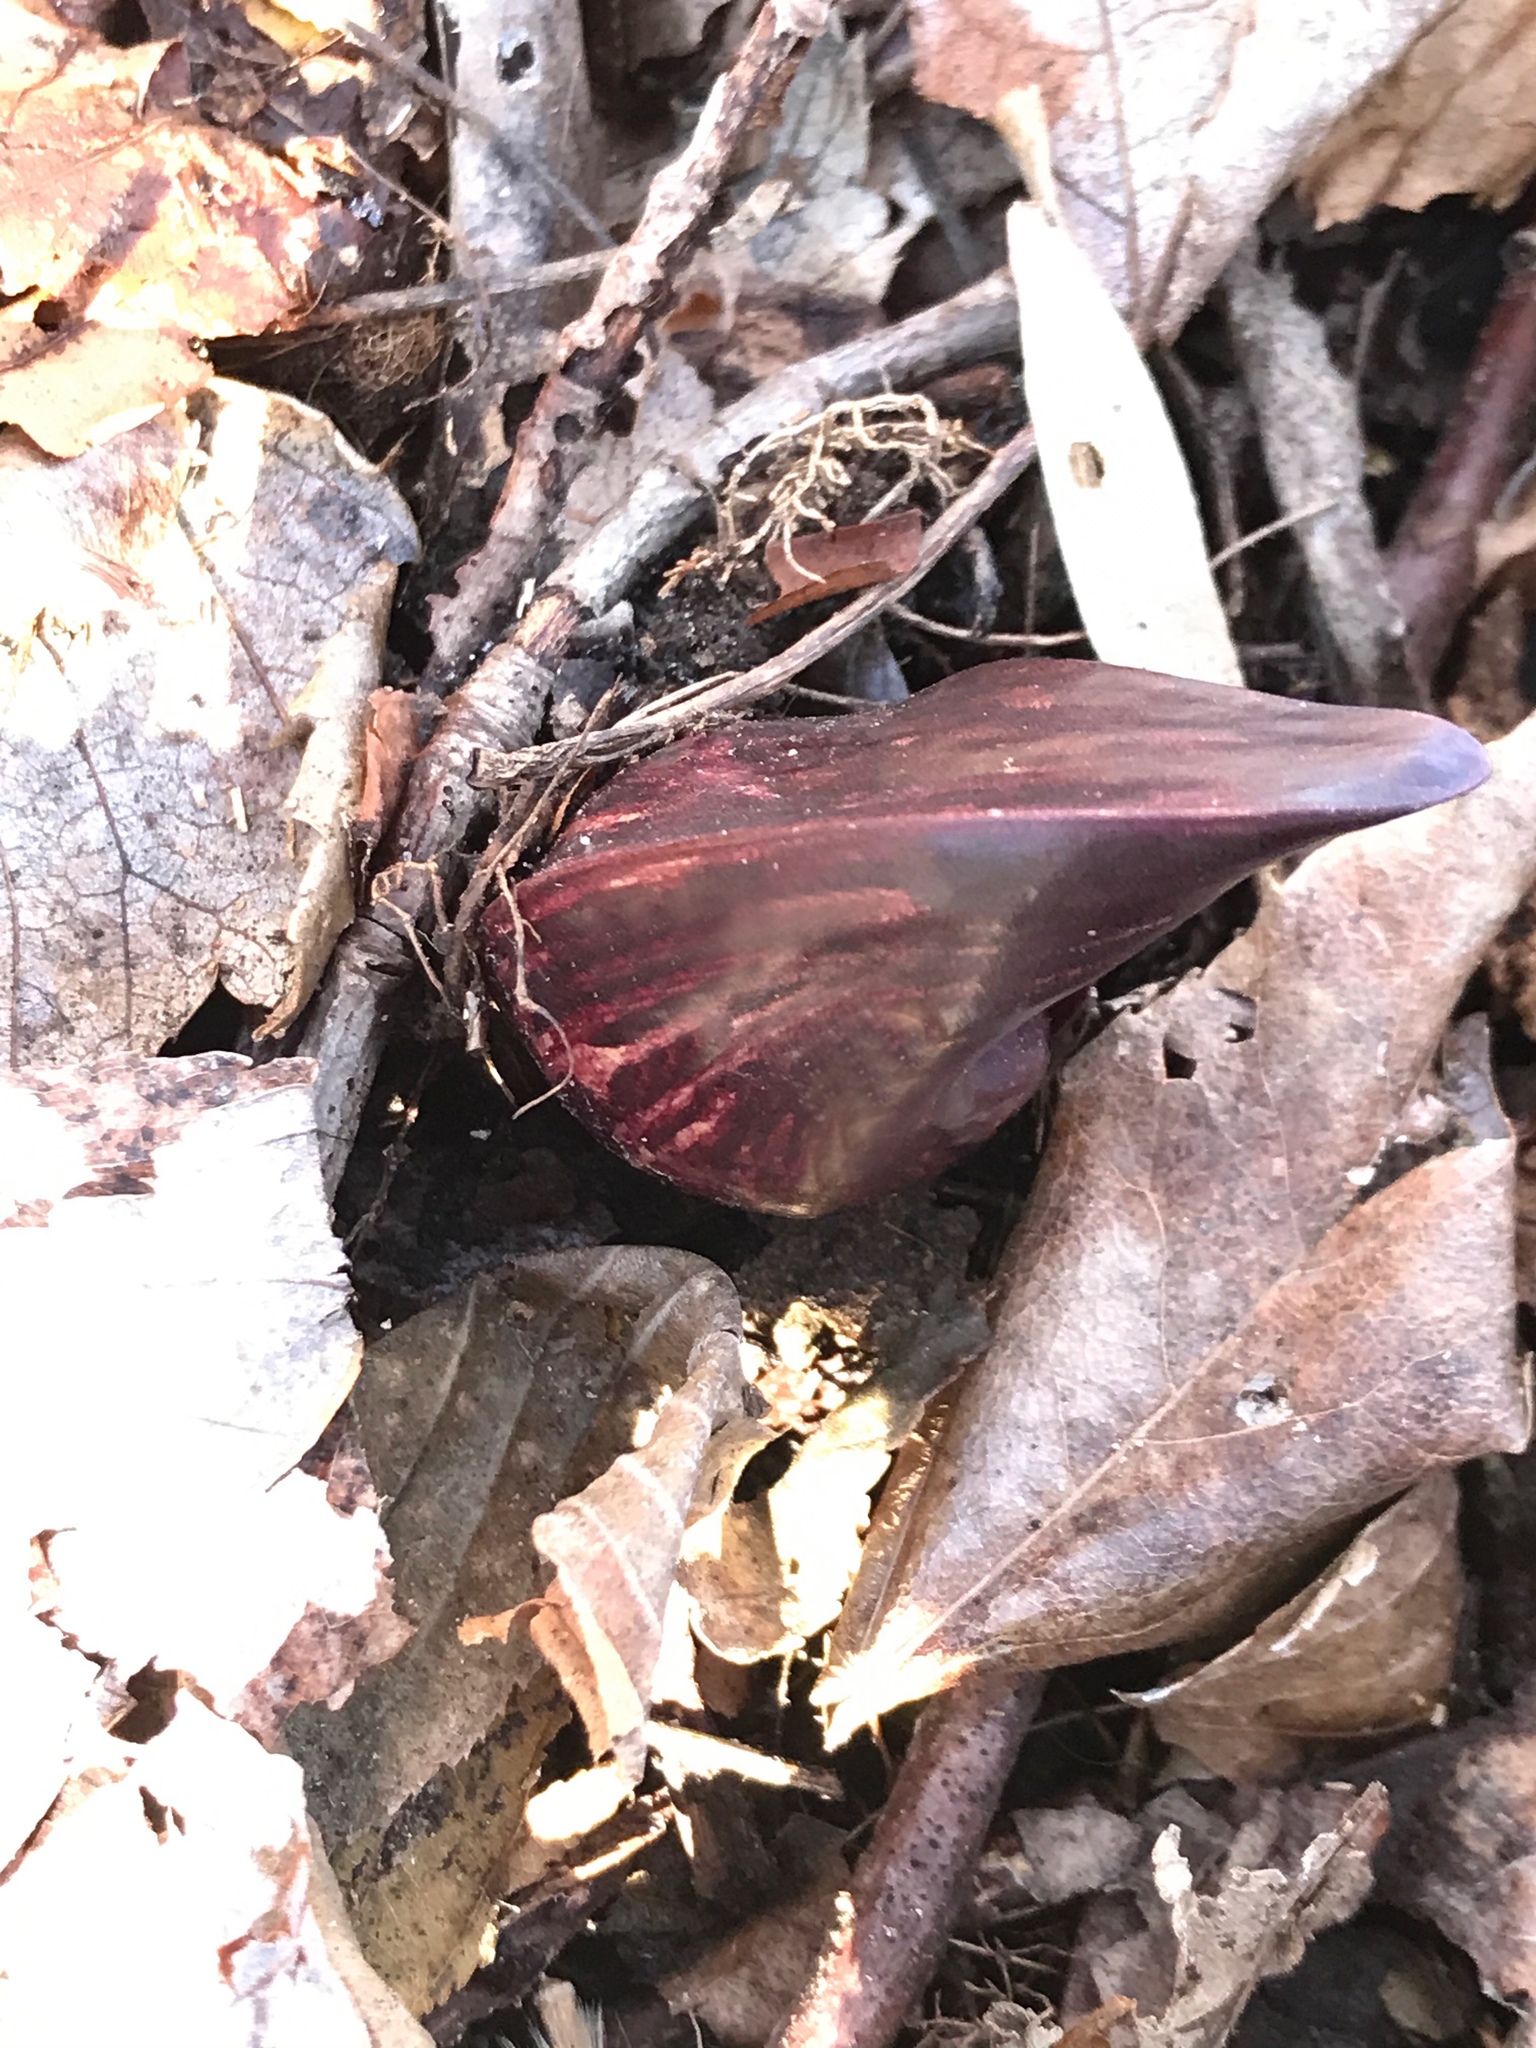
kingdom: Plantae
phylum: Tracheophyta
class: Liliopsida
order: Alismatales
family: Araceae
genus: Symplocarpus
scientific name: Symplocarpus foetidus
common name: Eastern skunk cabbage
